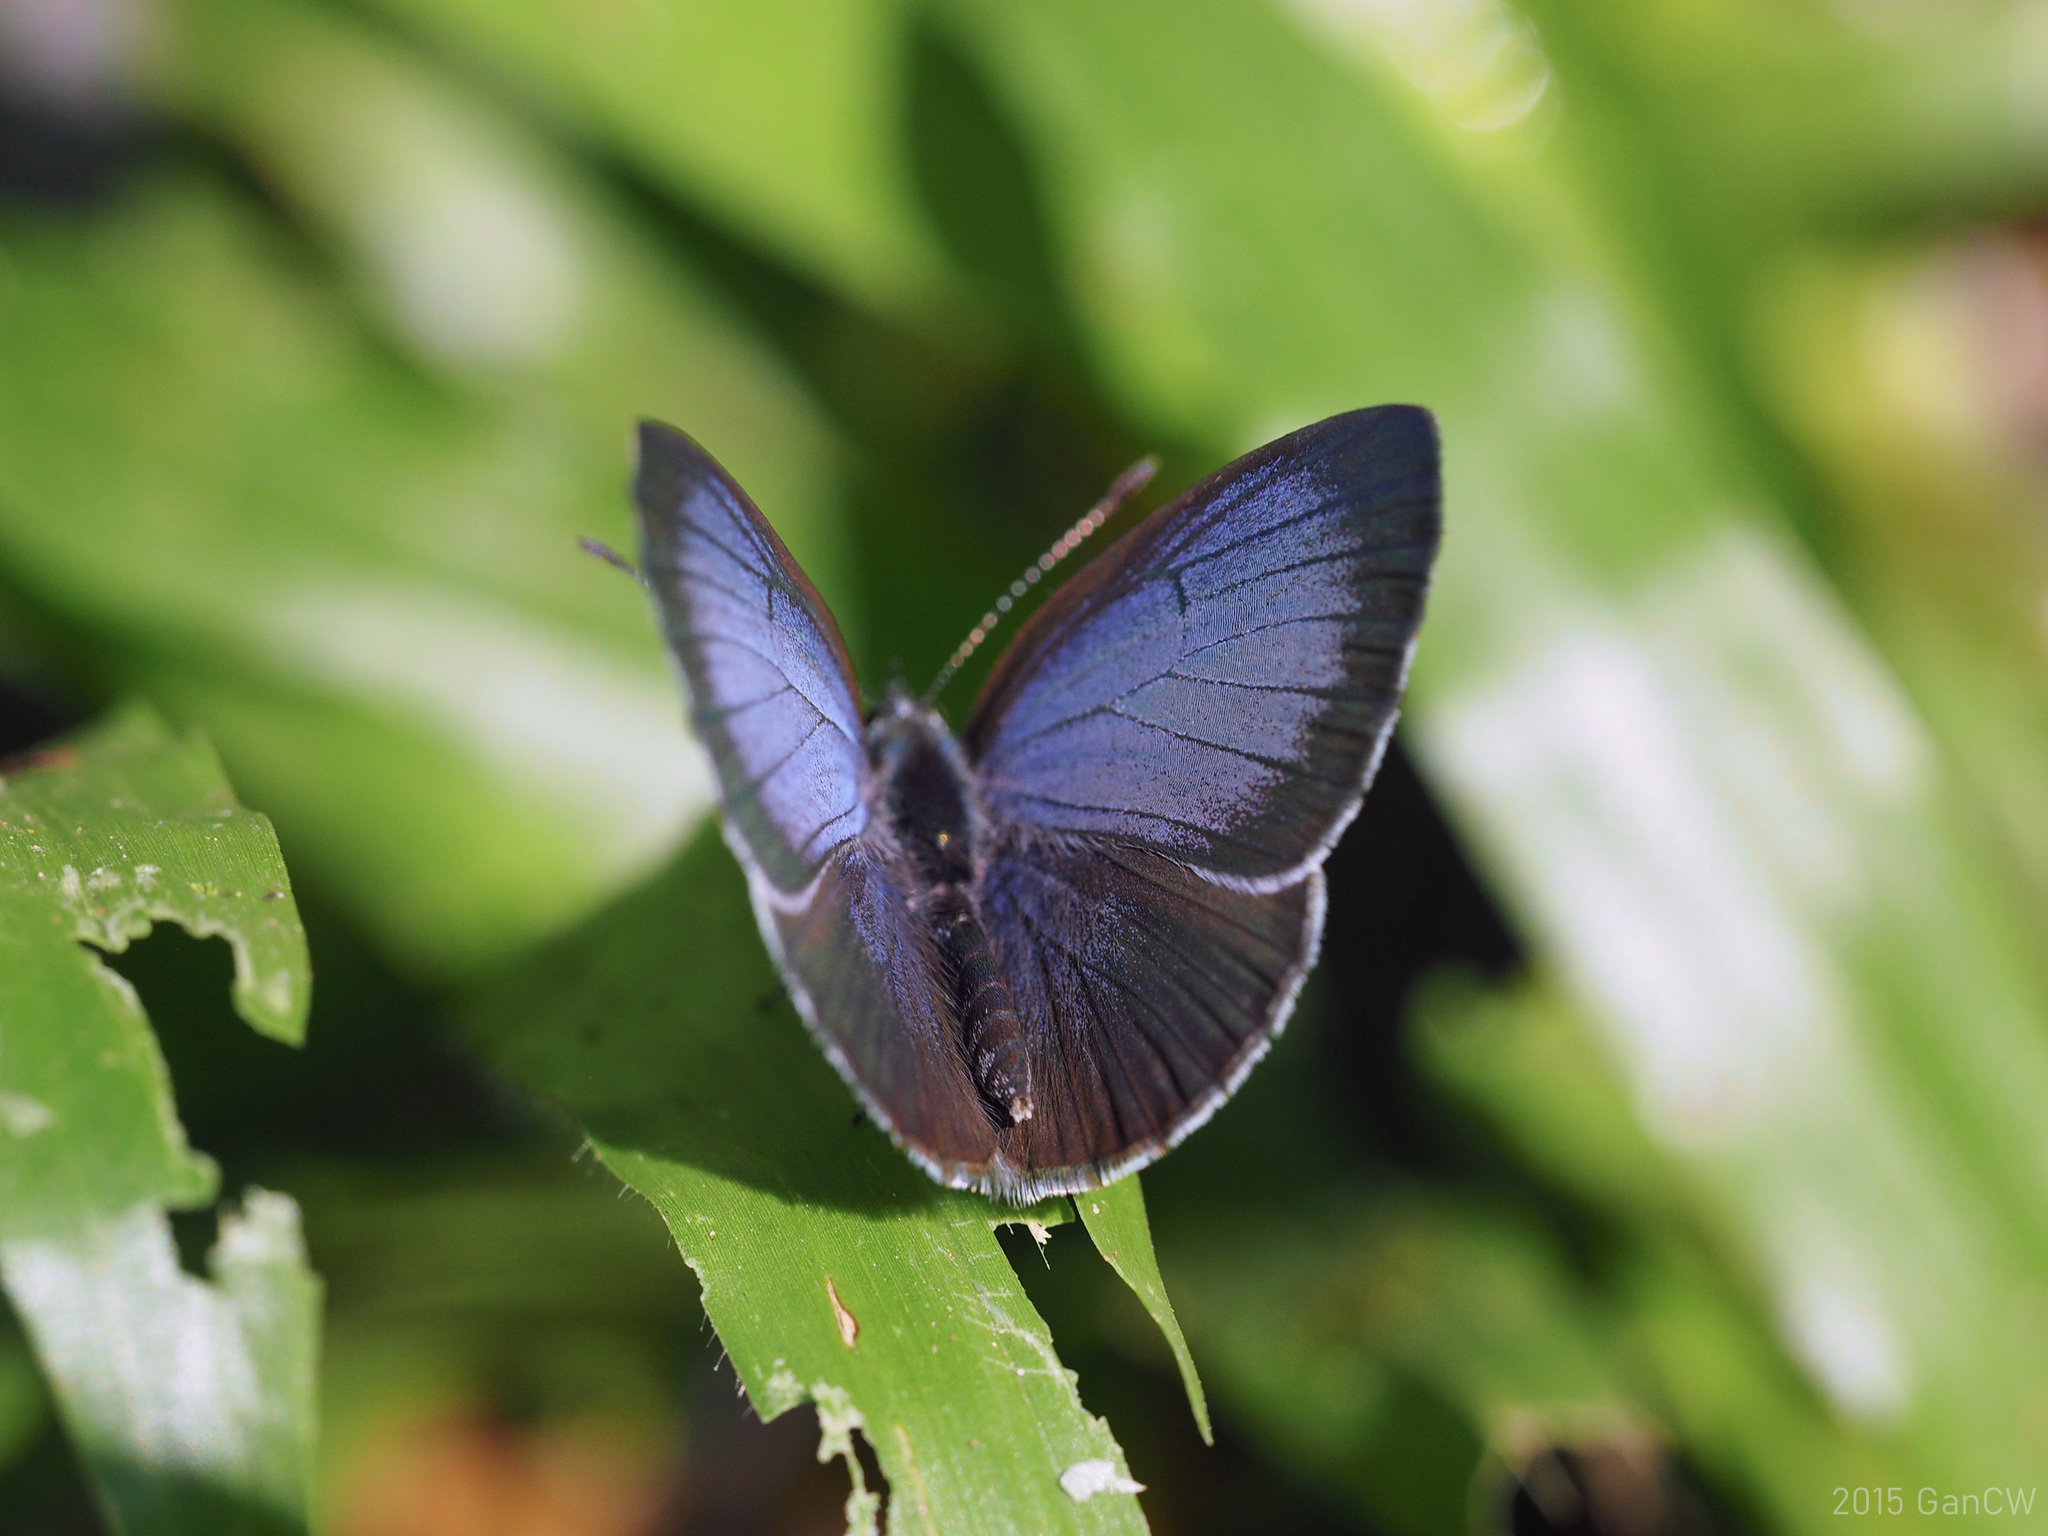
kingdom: Animalia
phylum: Arthropoda
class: Insecta
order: Lepidoptera
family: Lycaenidae
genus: Udara
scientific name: Udara
